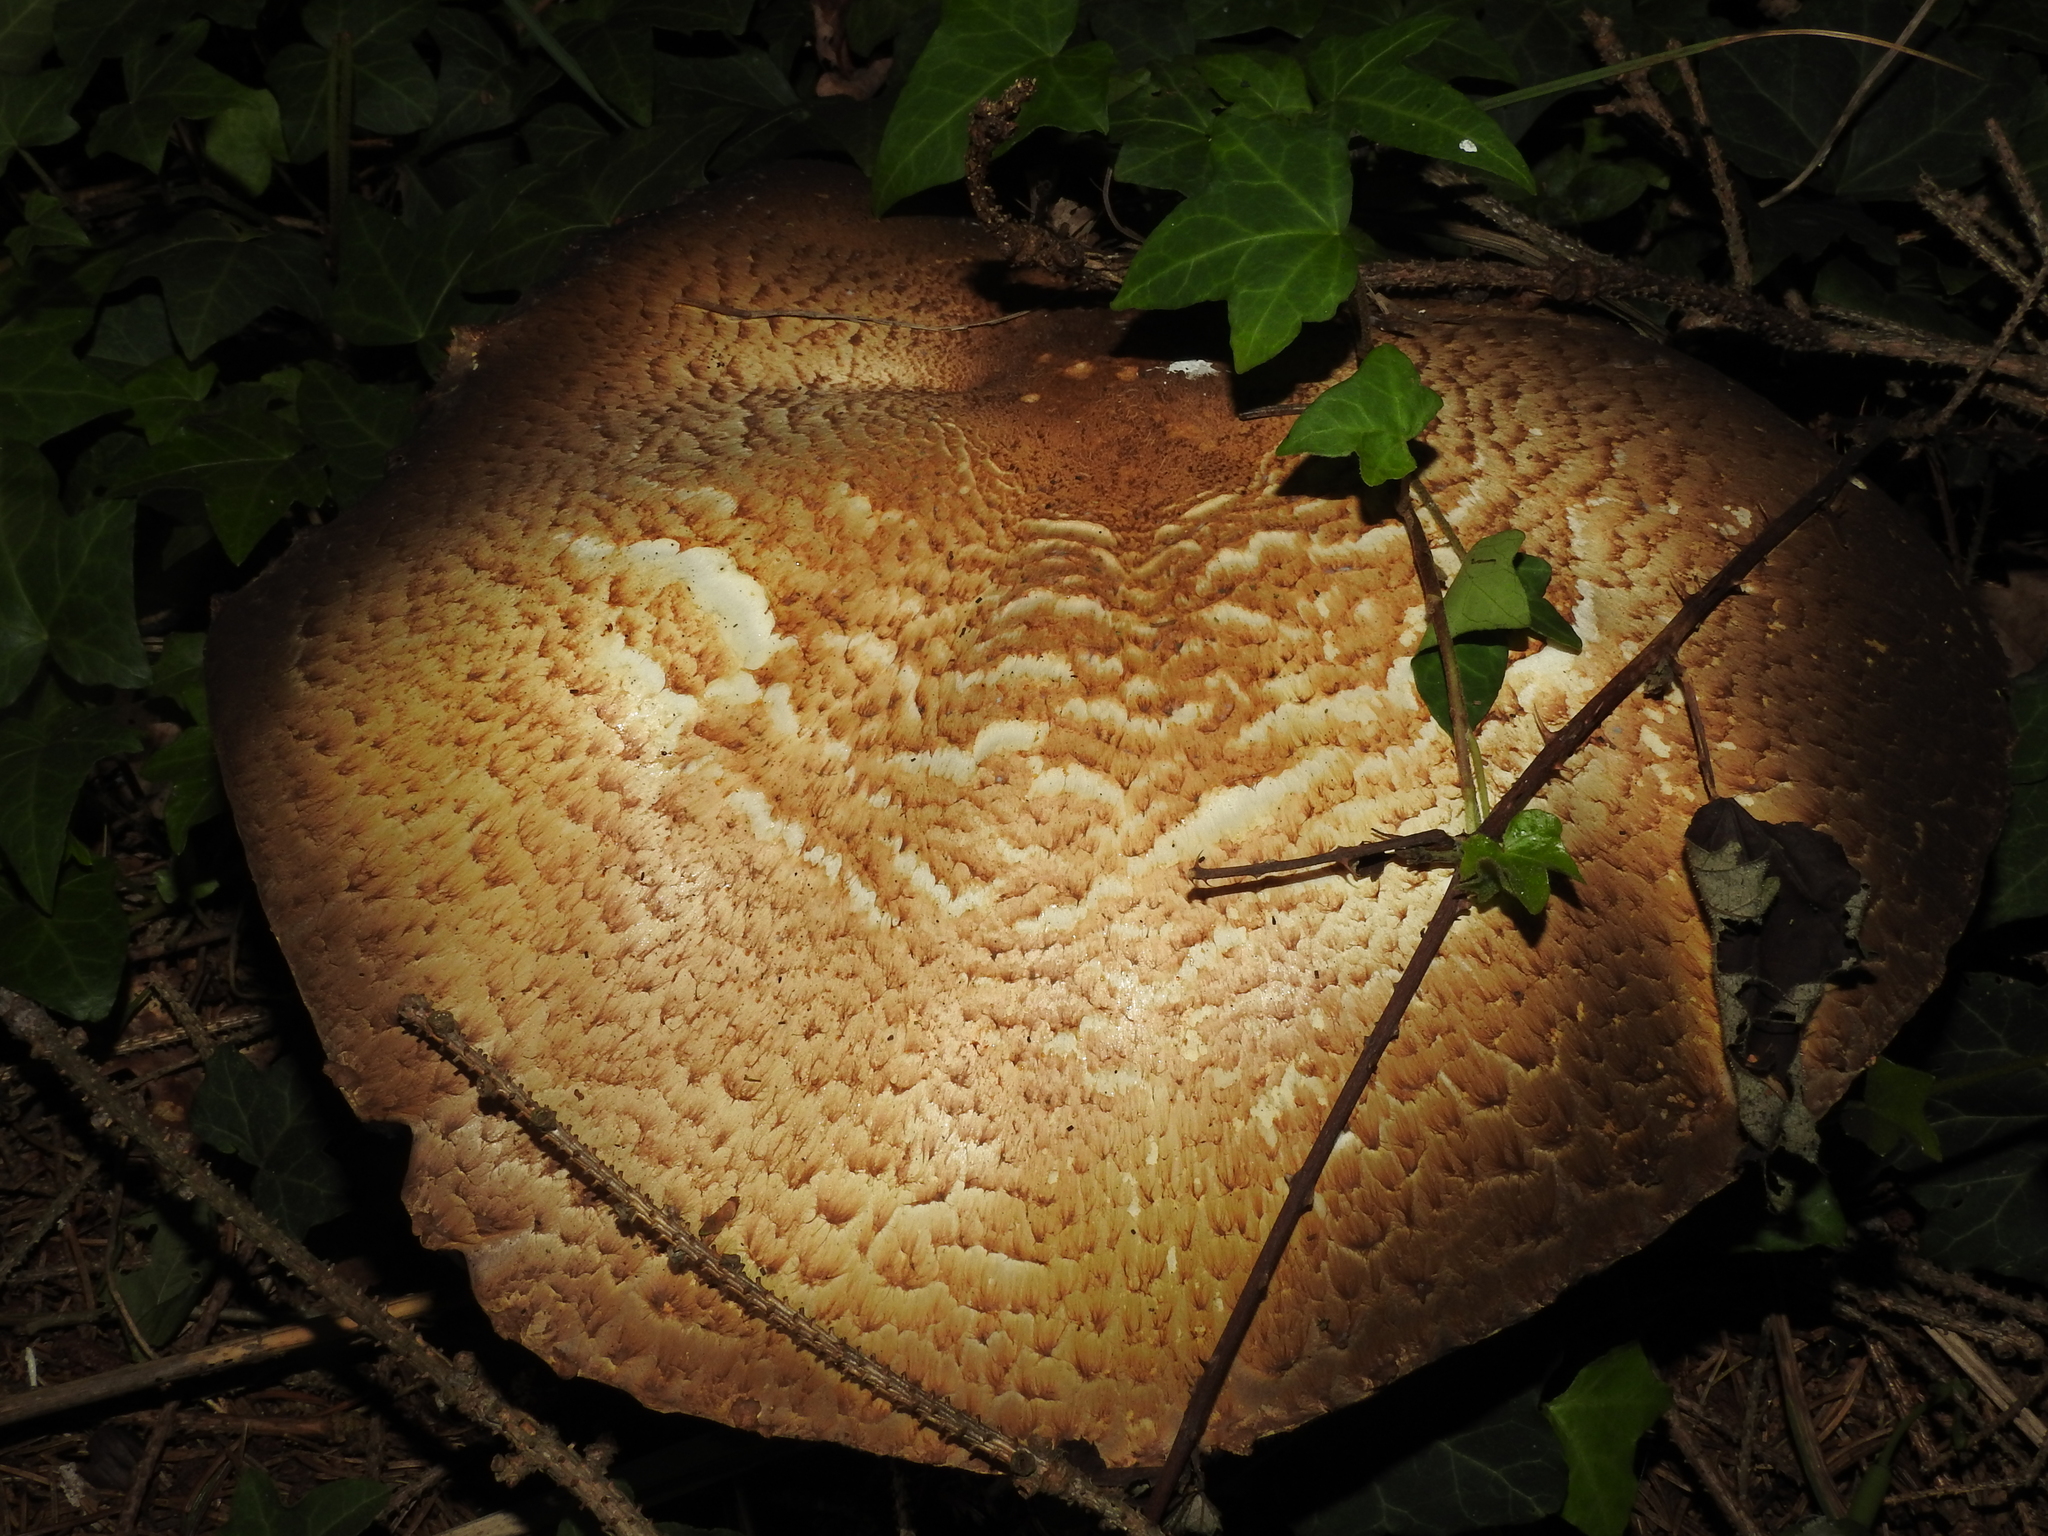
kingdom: Fungi
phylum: Basidiomycota
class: Agaricomycetes
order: Agaricales
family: Agaricaceae
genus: Agaricus
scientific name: Agaricus augustus
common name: Prince
